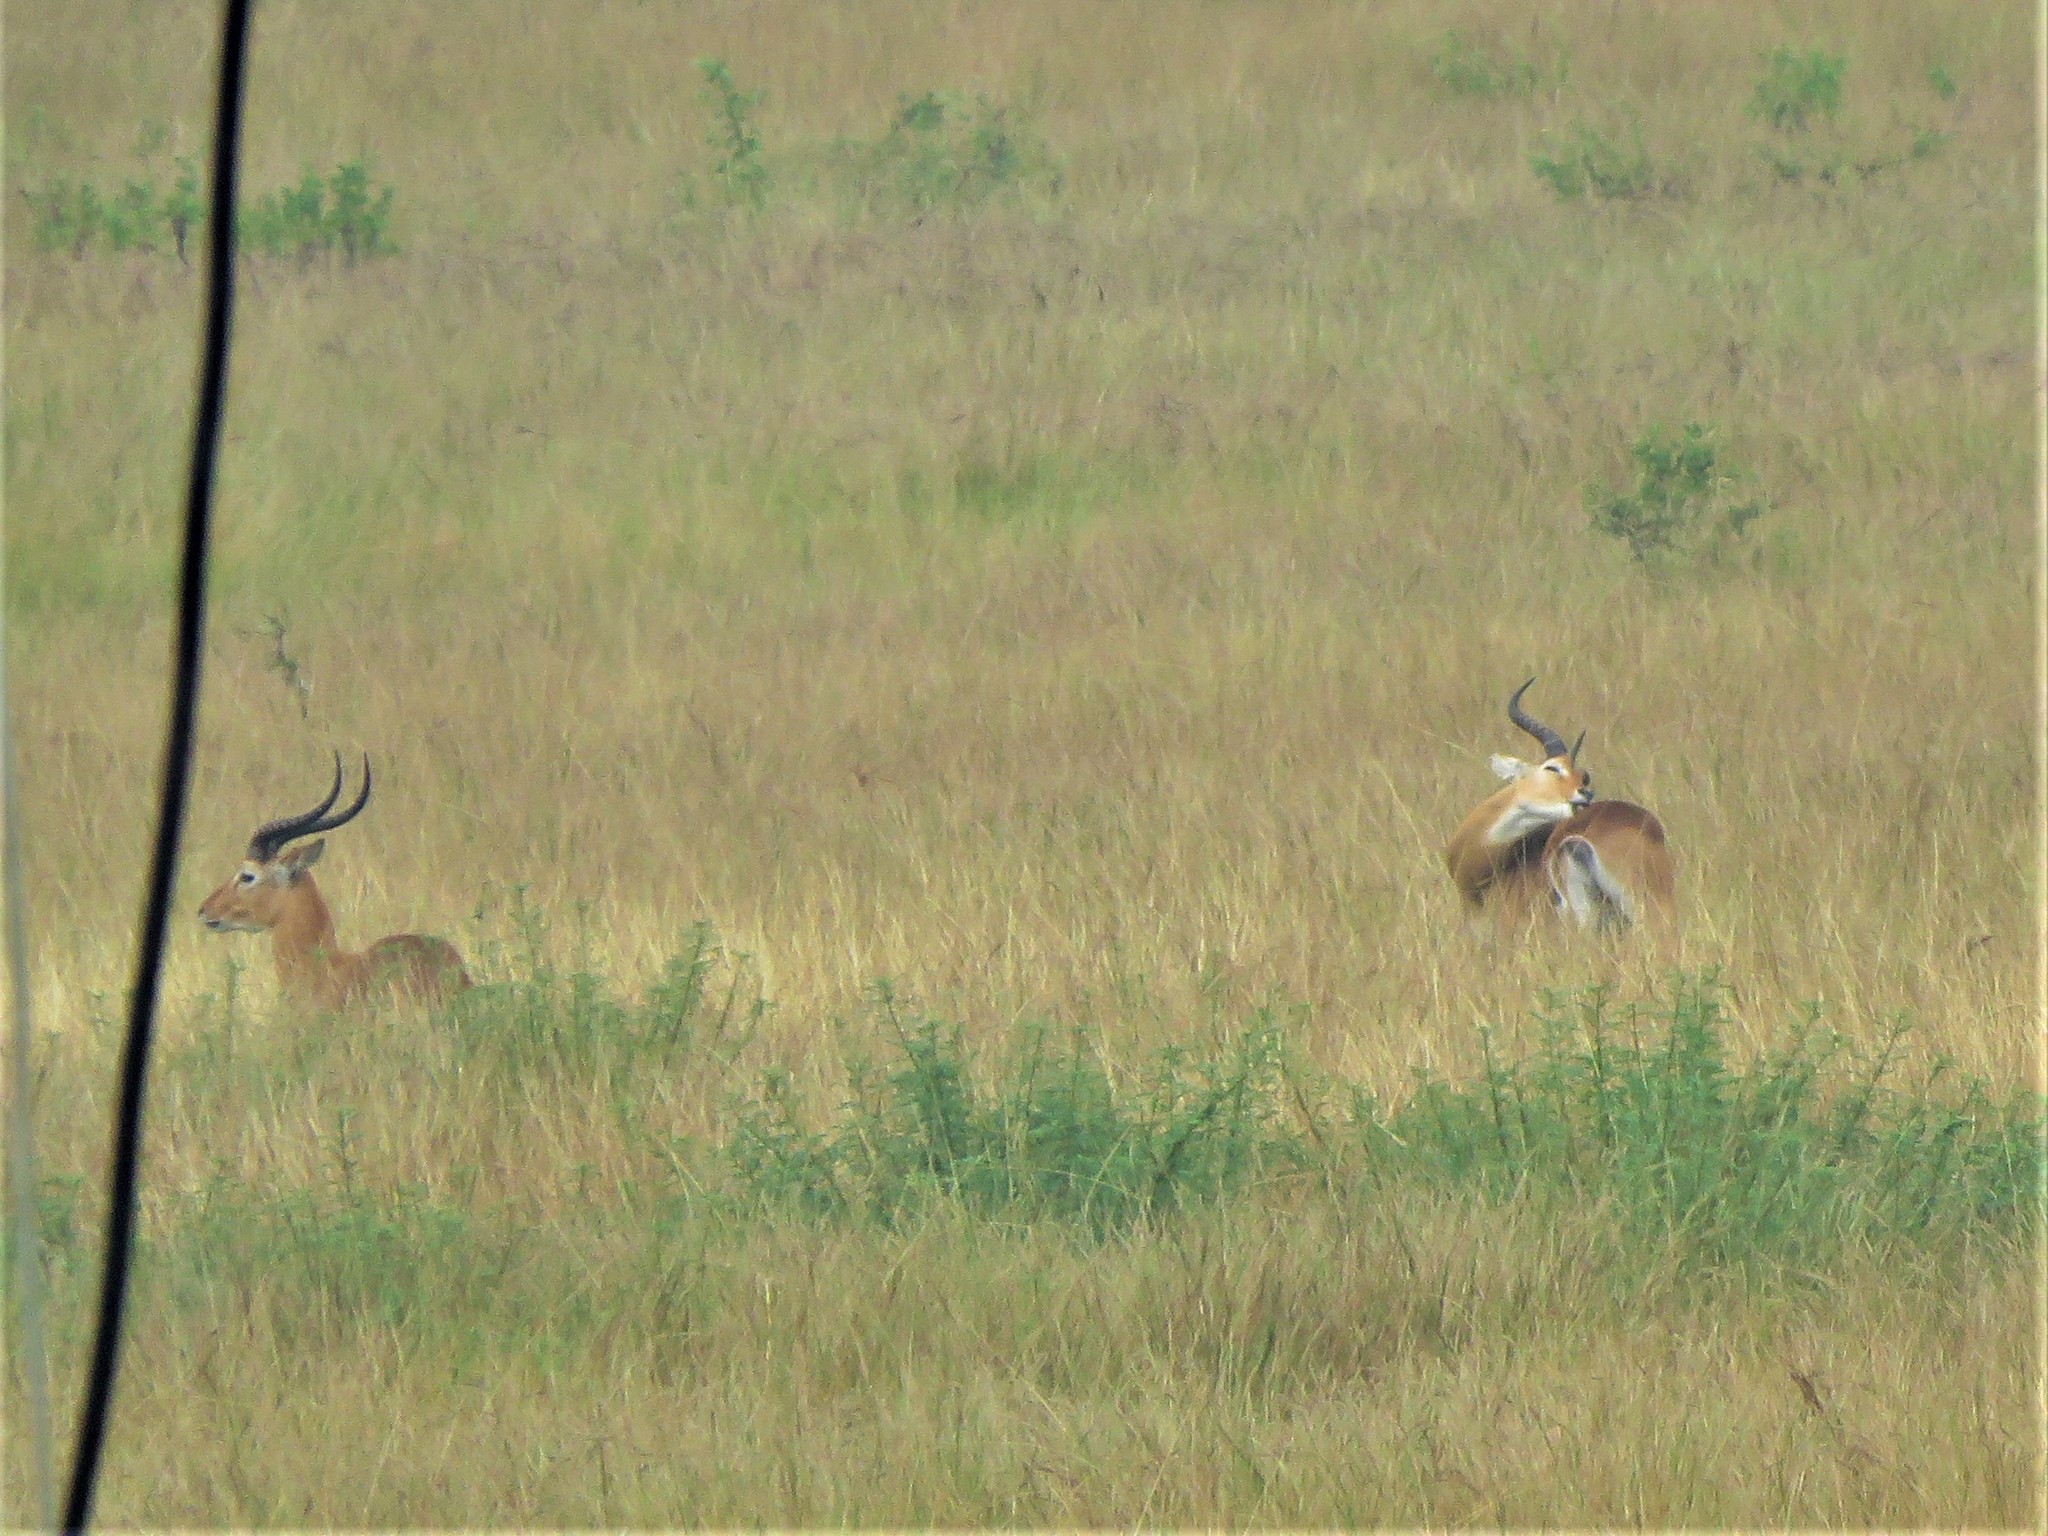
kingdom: Animalia
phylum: Chordata
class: Mammalia
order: Artiodactyla
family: Bovidae
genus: Kobus
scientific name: Kobus kob
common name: Kob
